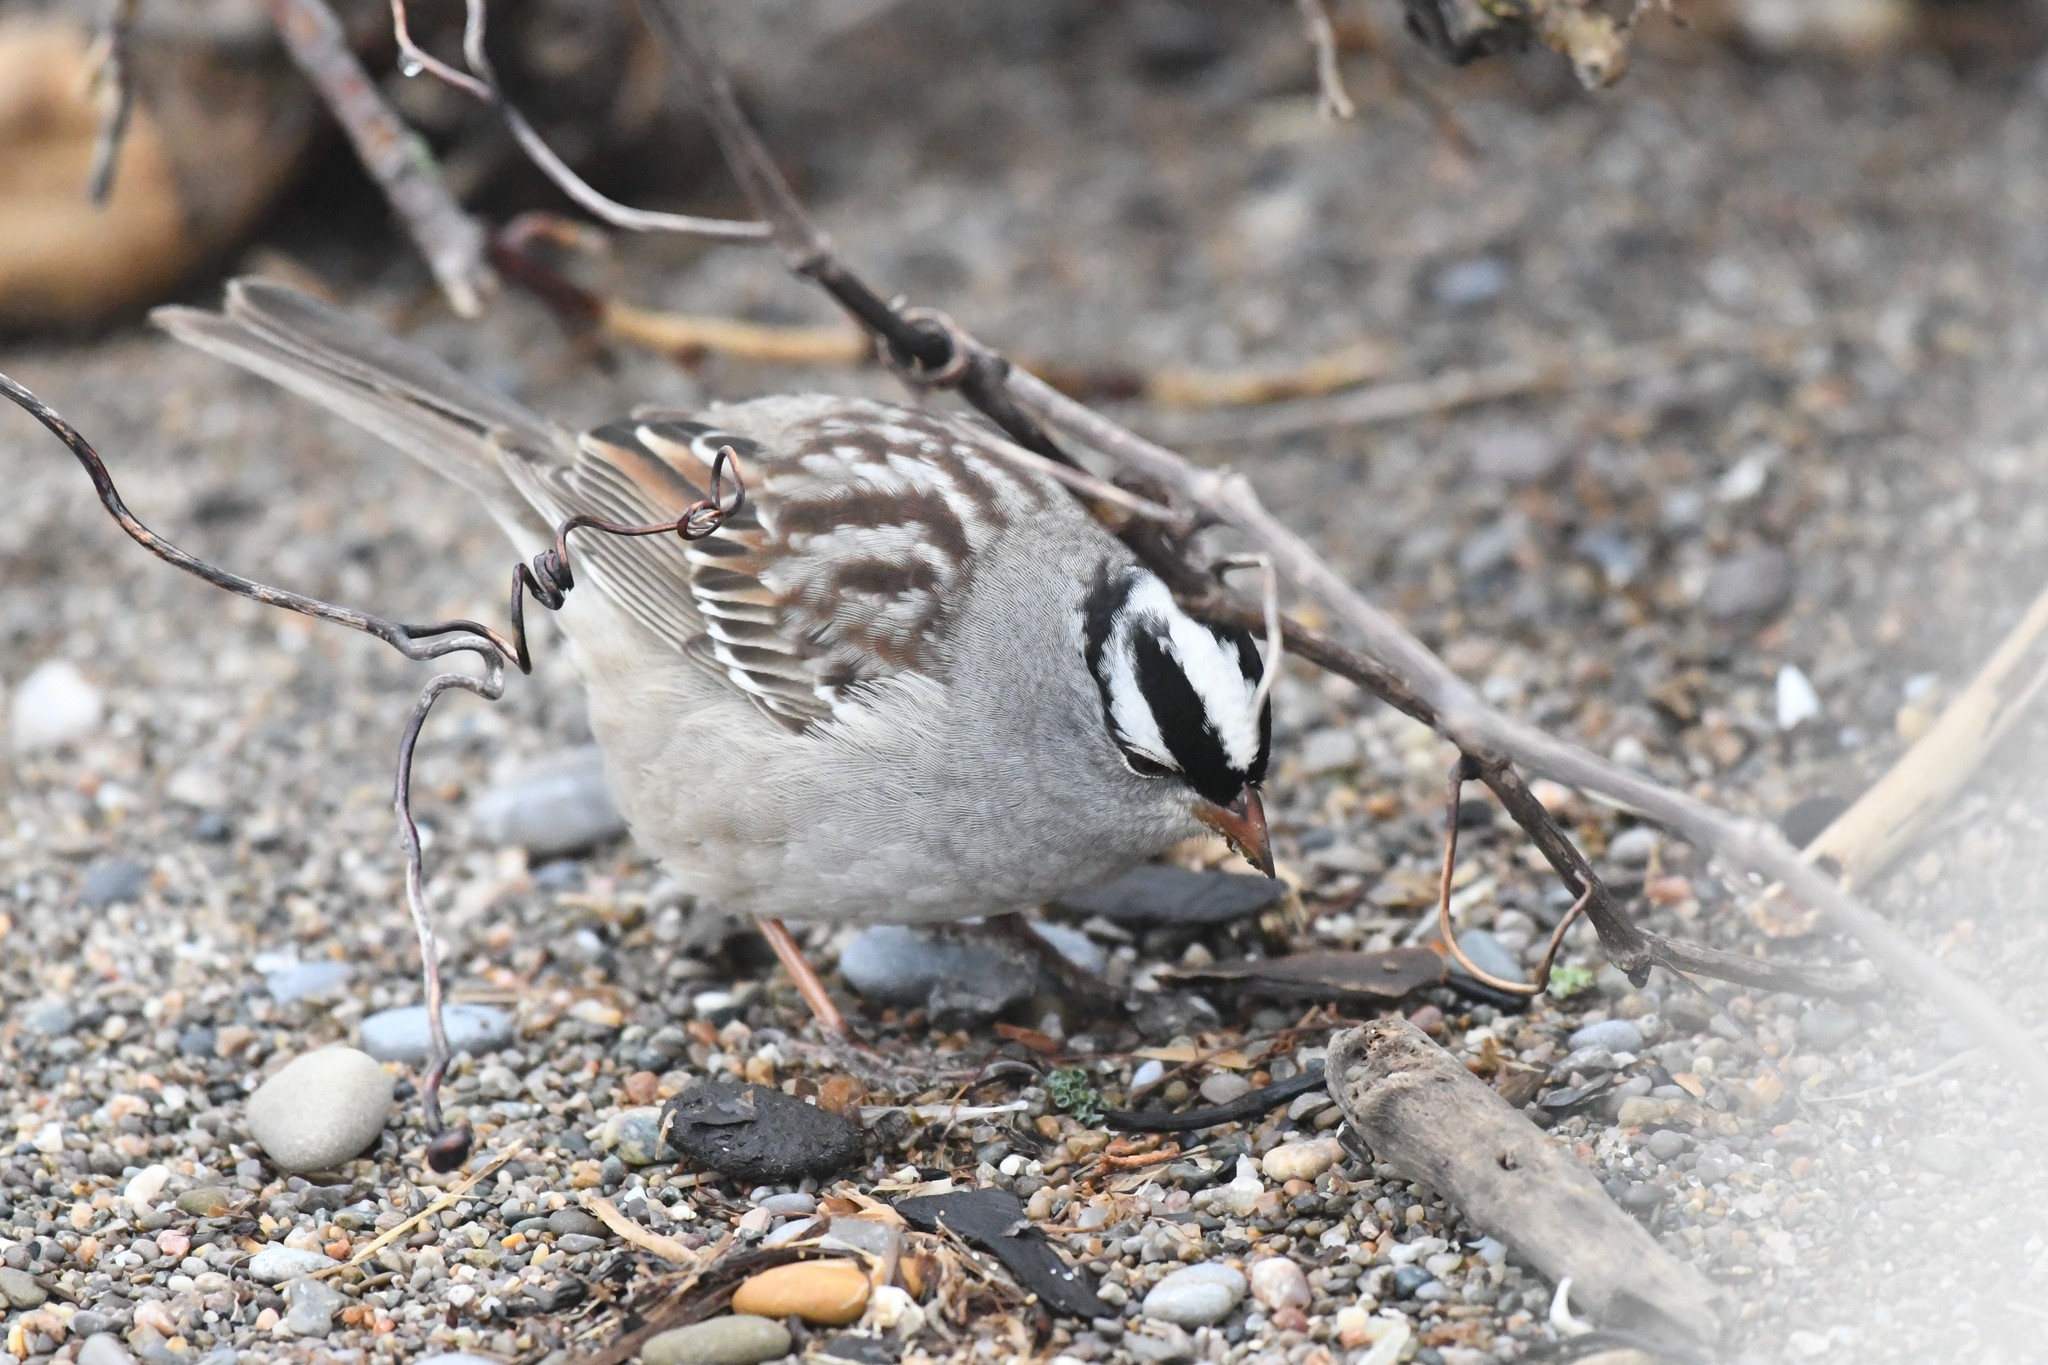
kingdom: Animalia
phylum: Chordata
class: Aves
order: Passeriformes
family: Passerellidae
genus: Zonotrichia
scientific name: Zonotrichia leucophrys
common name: White-crowned sparrow
